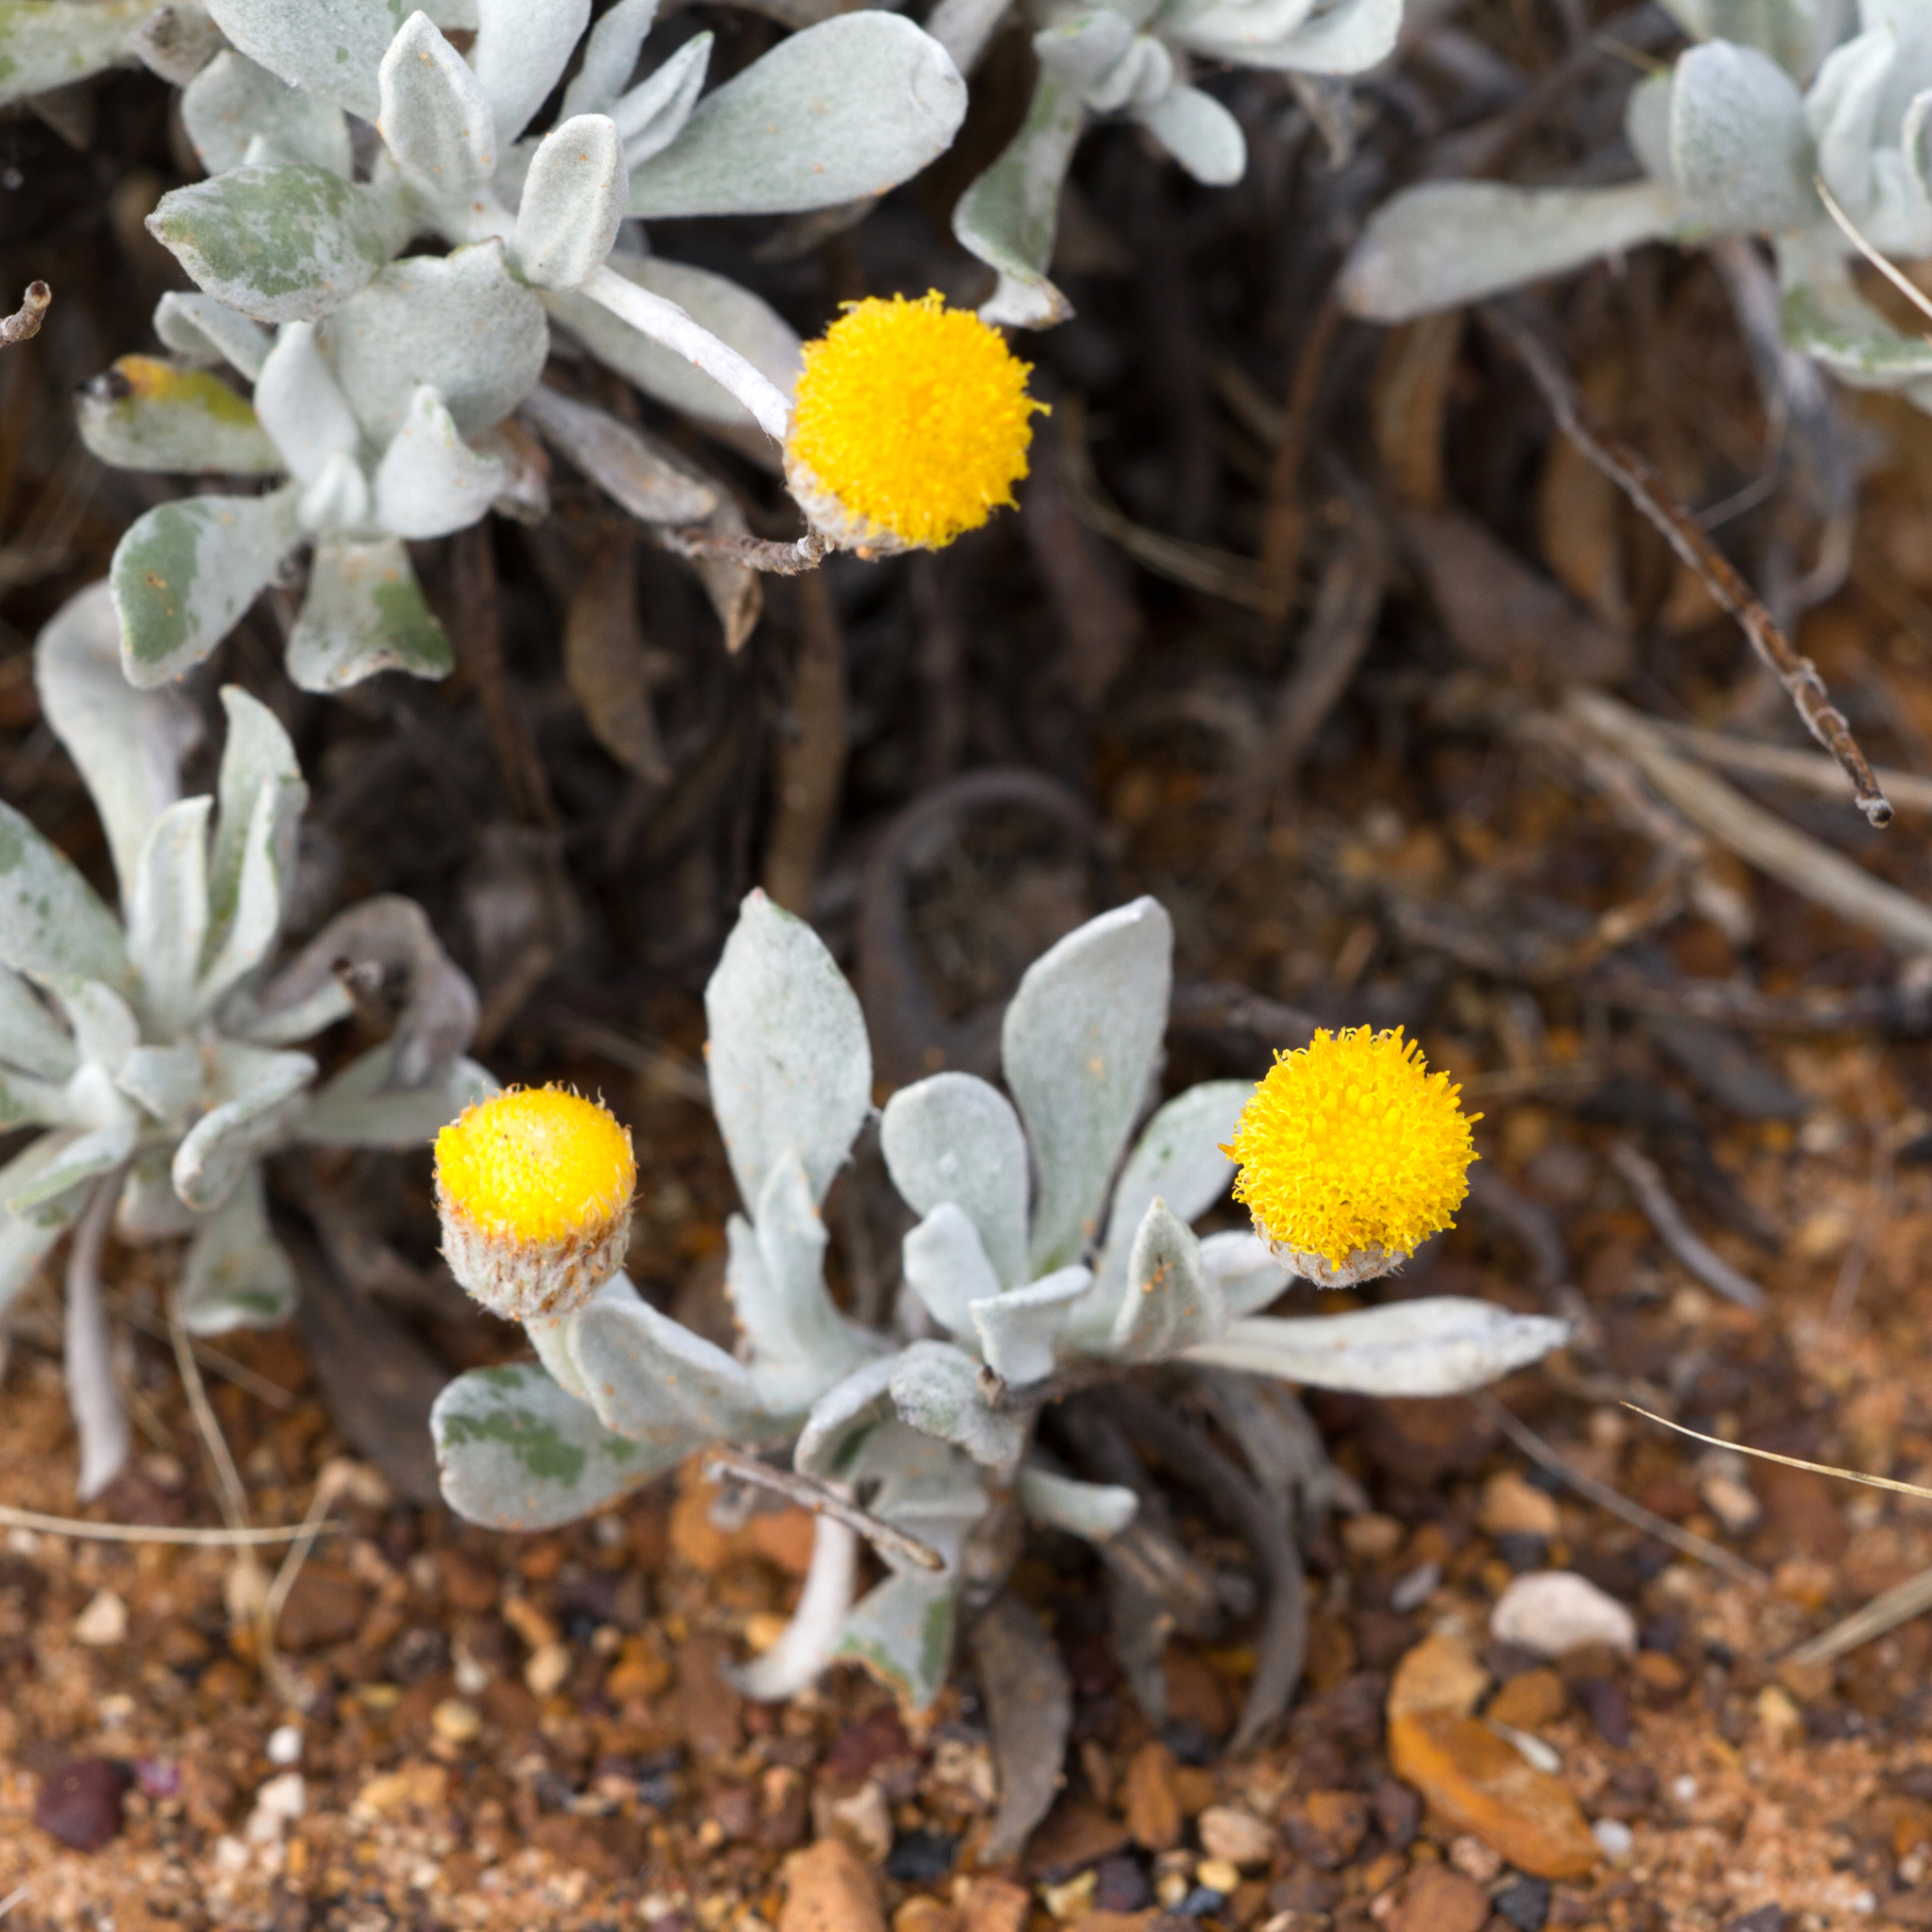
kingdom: Plantae
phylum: Tracheophyta
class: Magnoliopsida
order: Asterales
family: Asteraceae
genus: Anemocarpa
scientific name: Anemocarpa podolepidium
